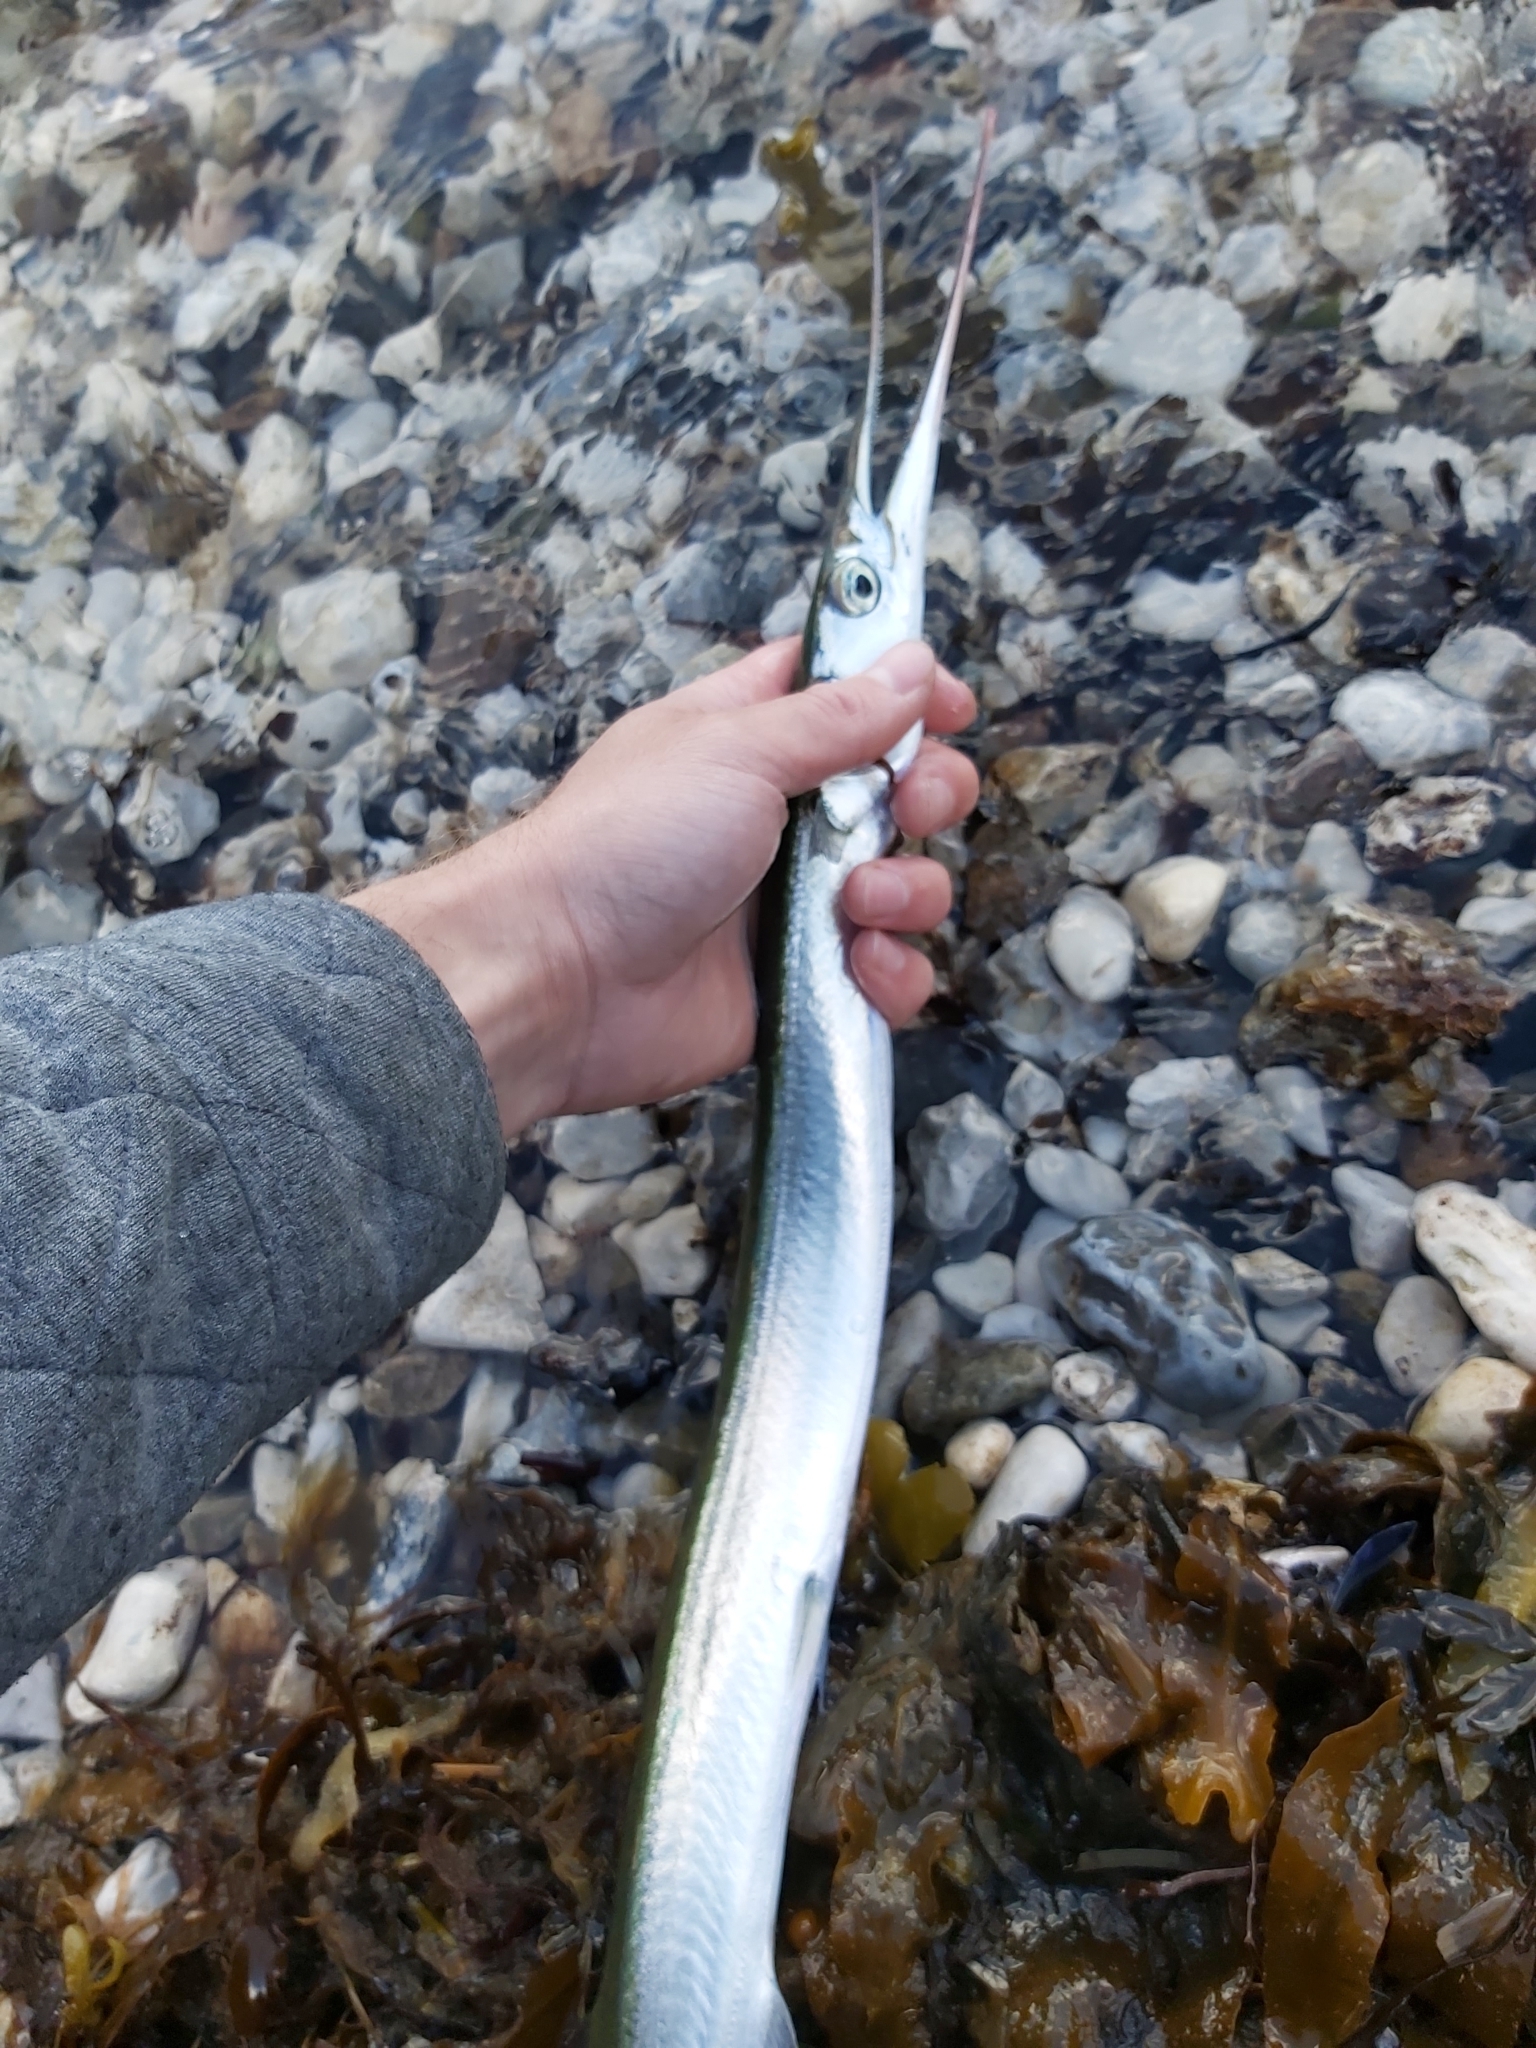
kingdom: Animalia
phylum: Chordata
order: Beloniformes
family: Belonidae
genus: Belone
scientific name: Belone belone
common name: Garfish
